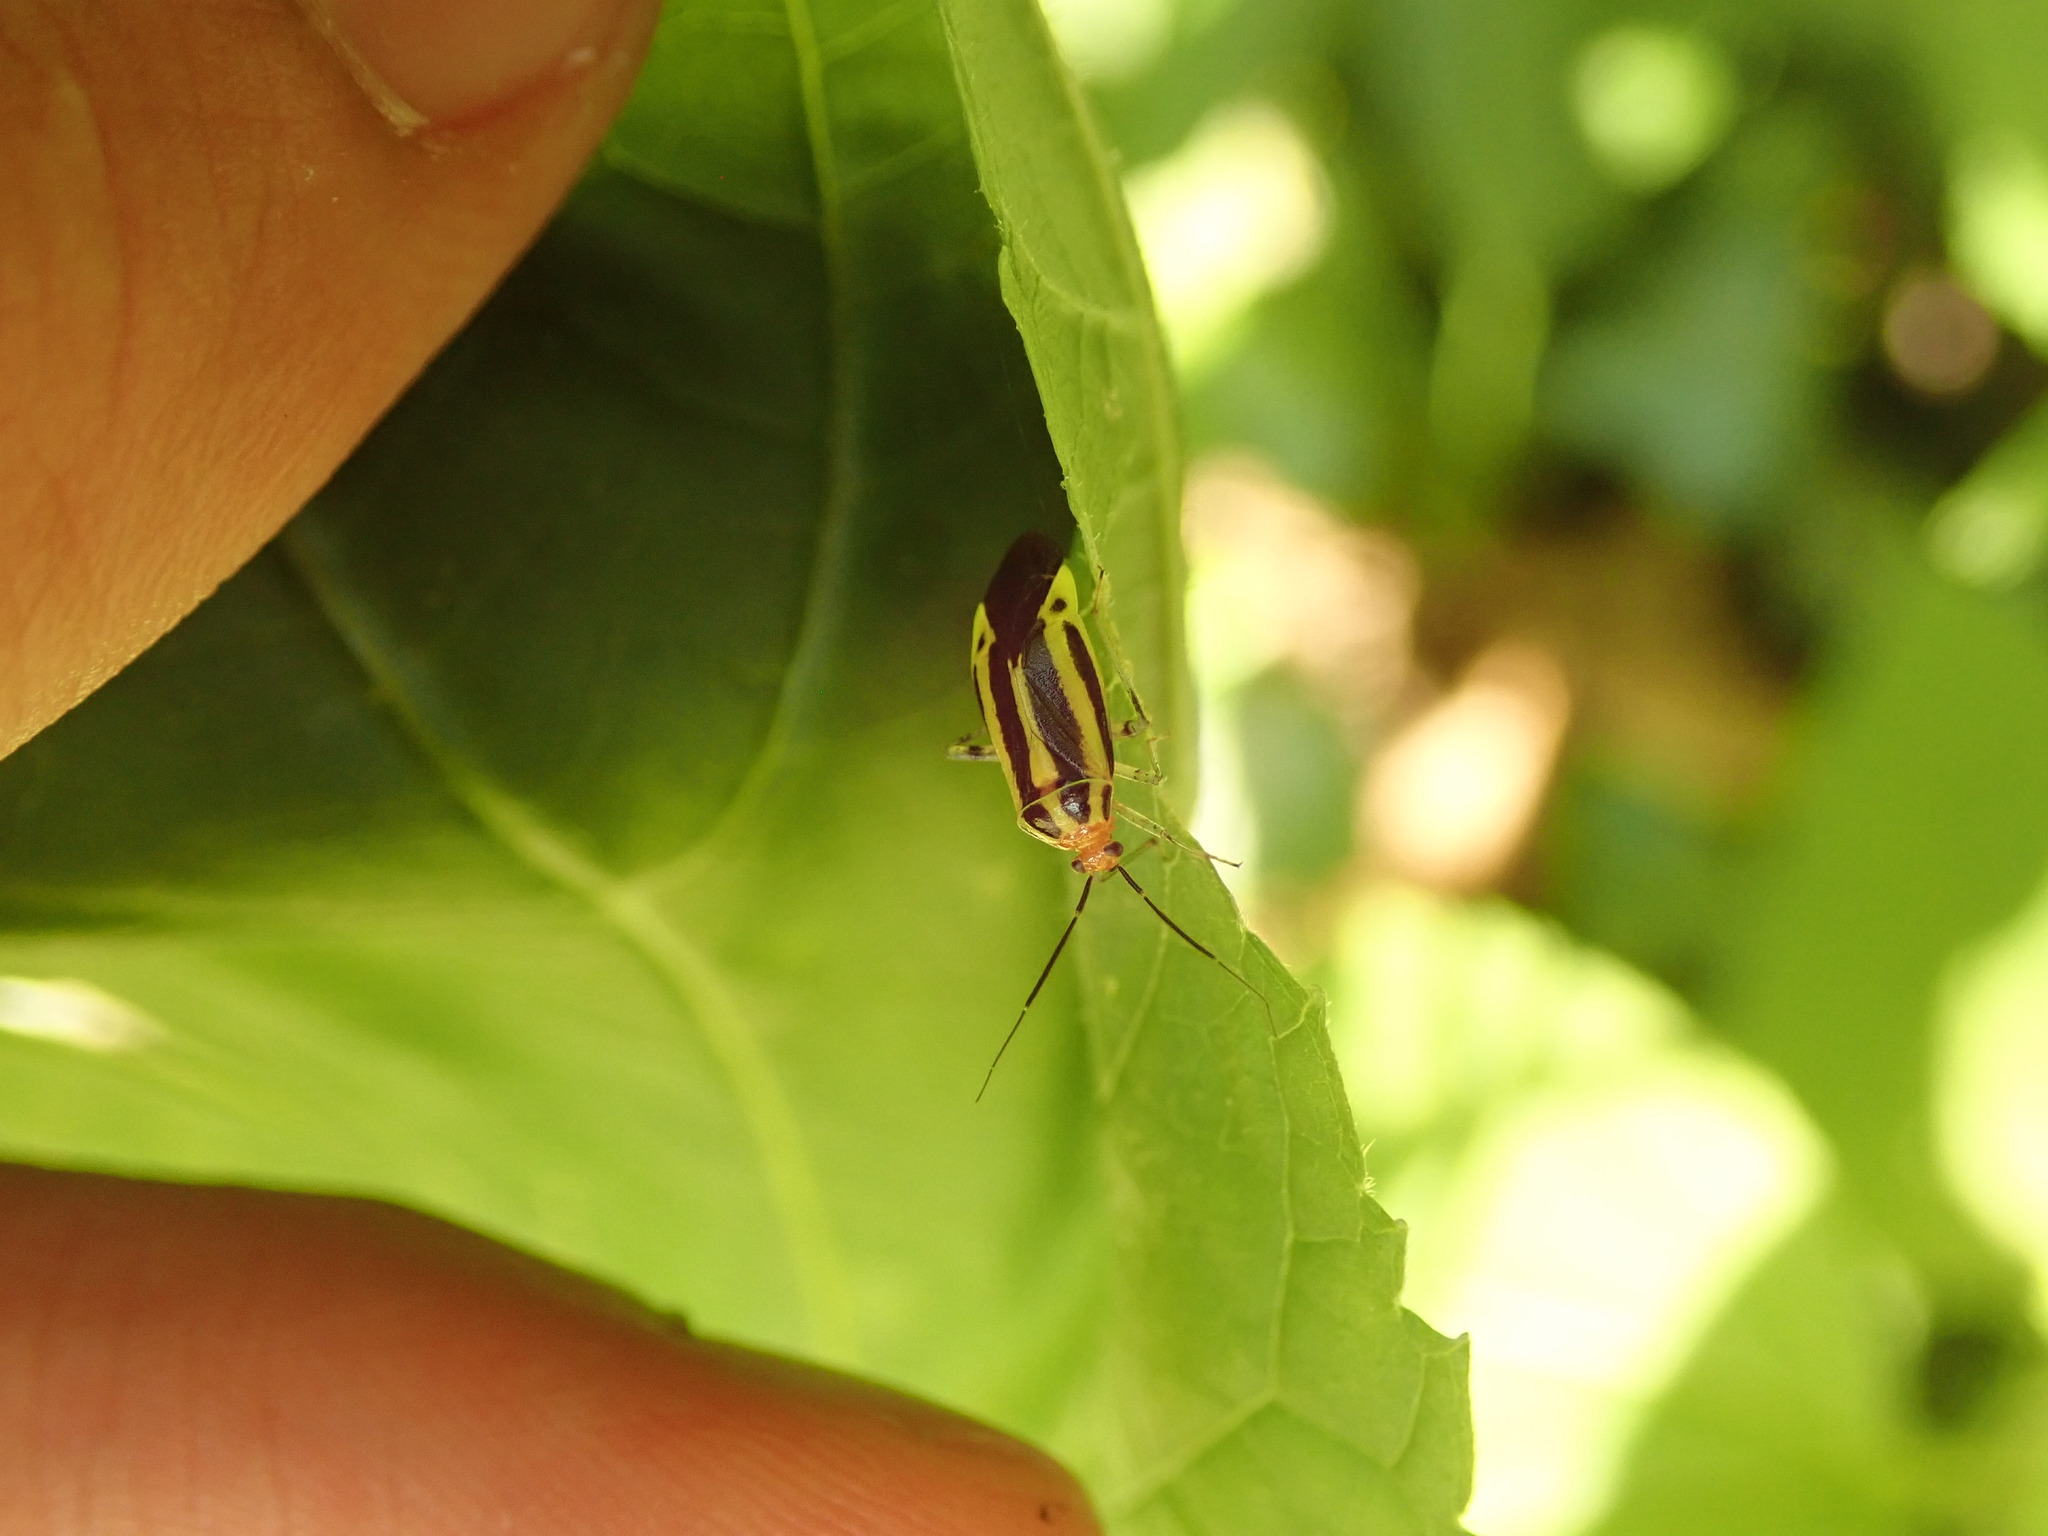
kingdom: Animalia
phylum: Arthropoda
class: Insecta
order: Hemiptera
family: Miridae
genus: Poecilocapsus
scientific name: Poecilocapsus lineatus
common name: Four-lined plant bug
